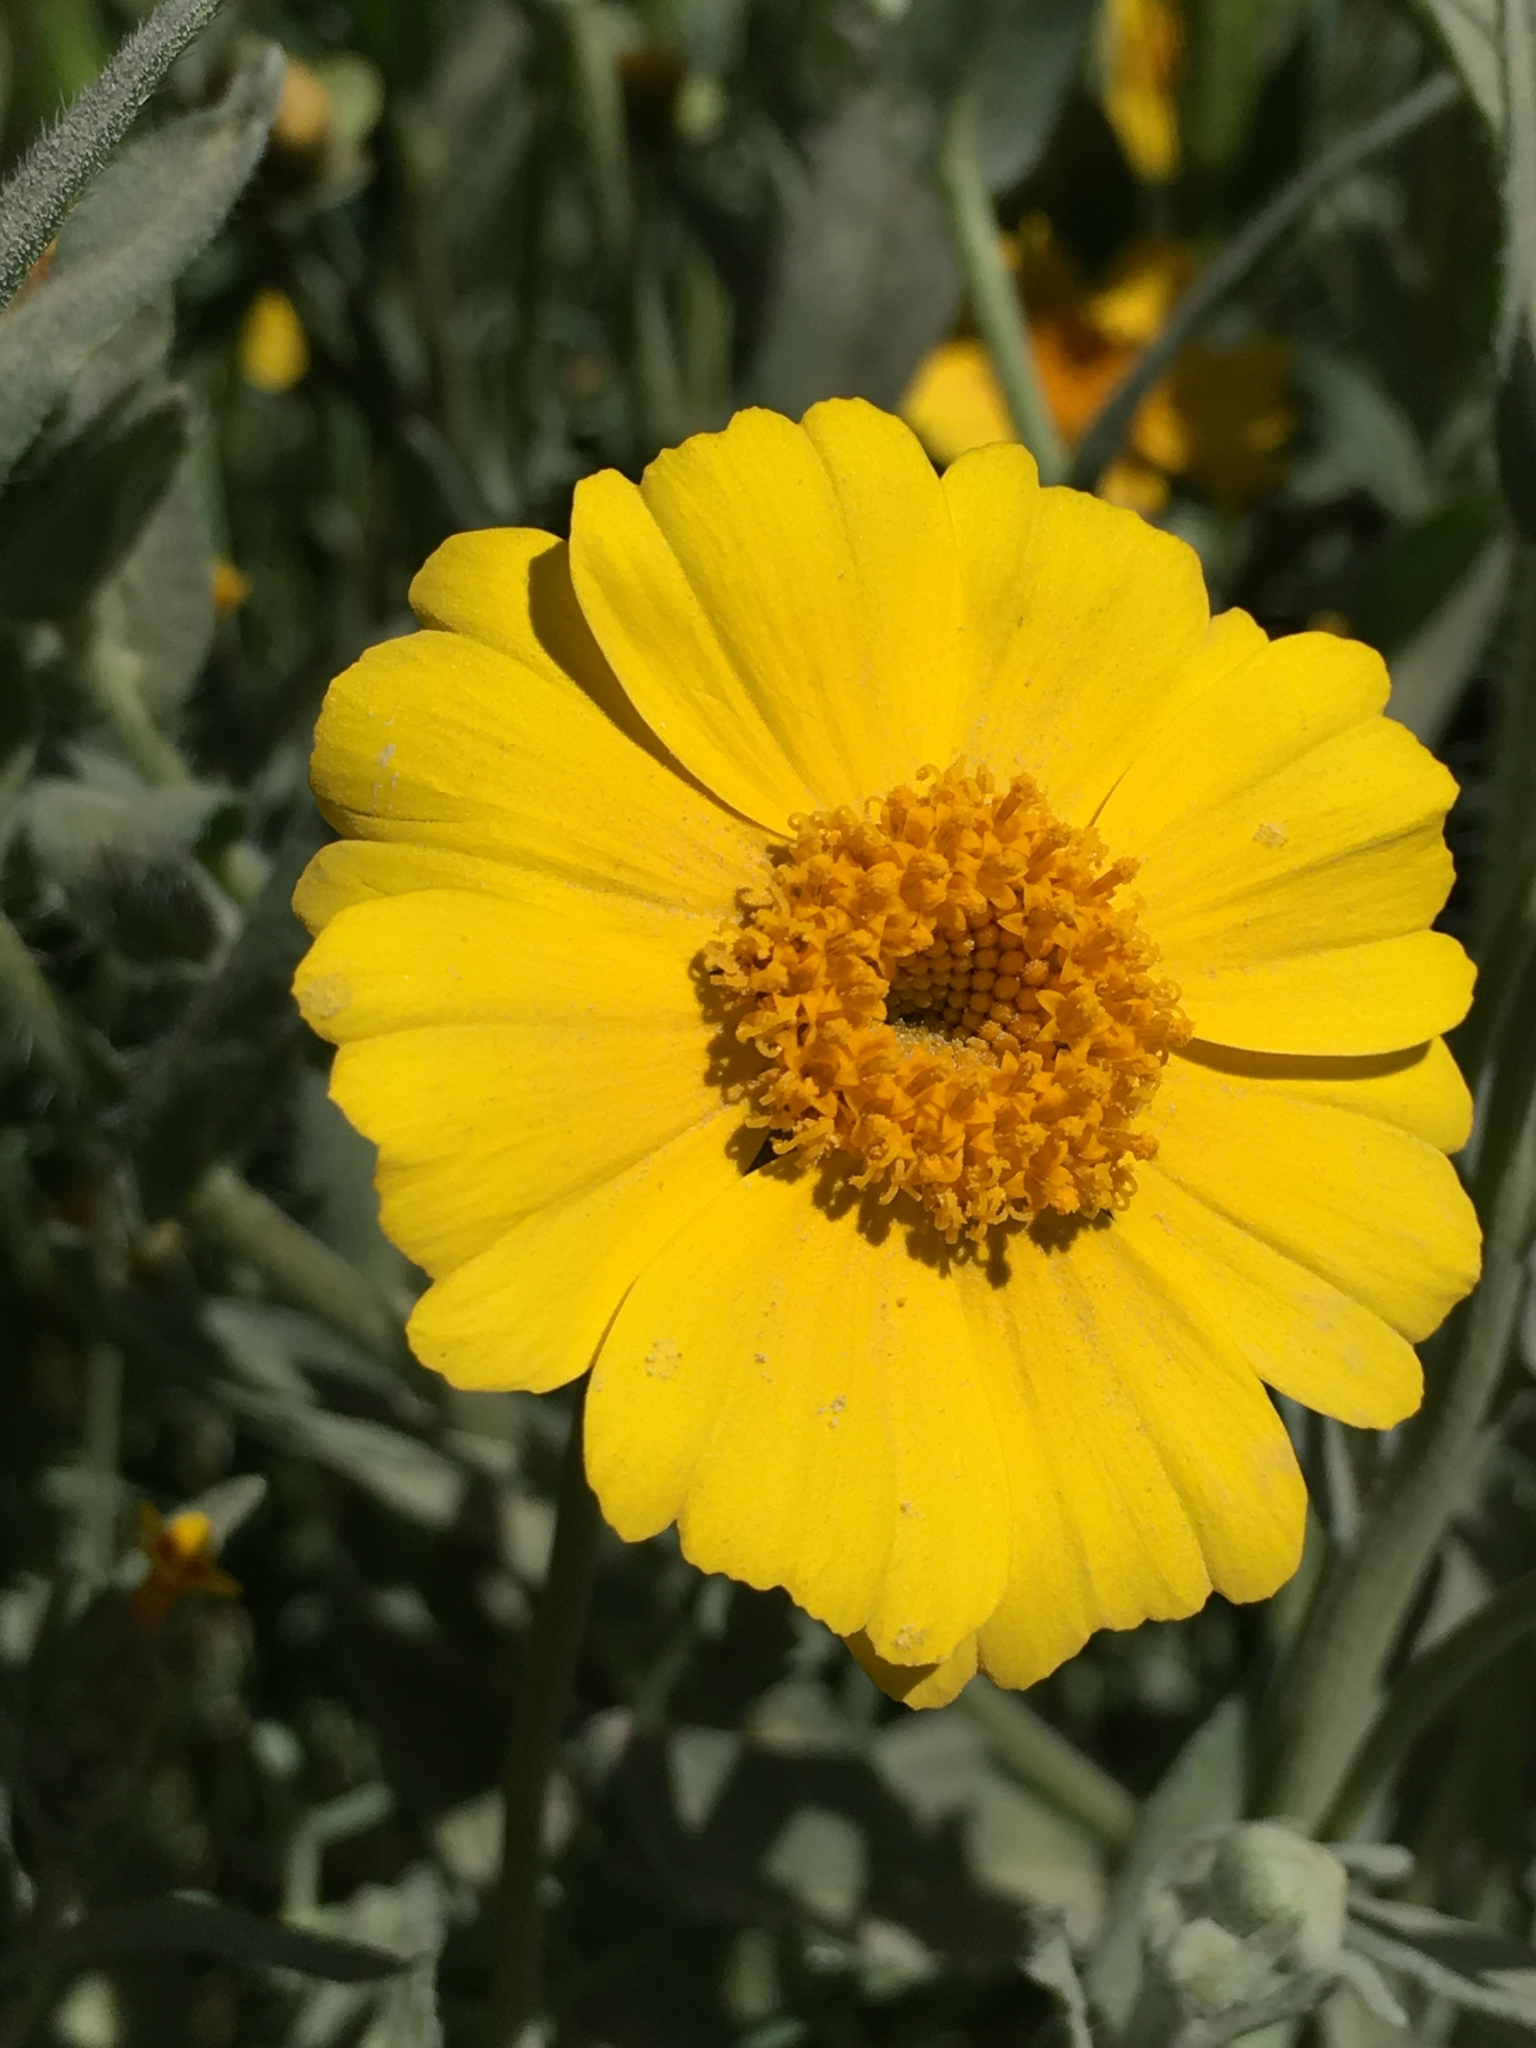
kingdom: Plantae
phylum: Tracheophyta
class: Magnoliopsida
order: Asterales
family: Asteraceae
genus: Coreopsis
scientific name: Coreopsis calliopsidea
